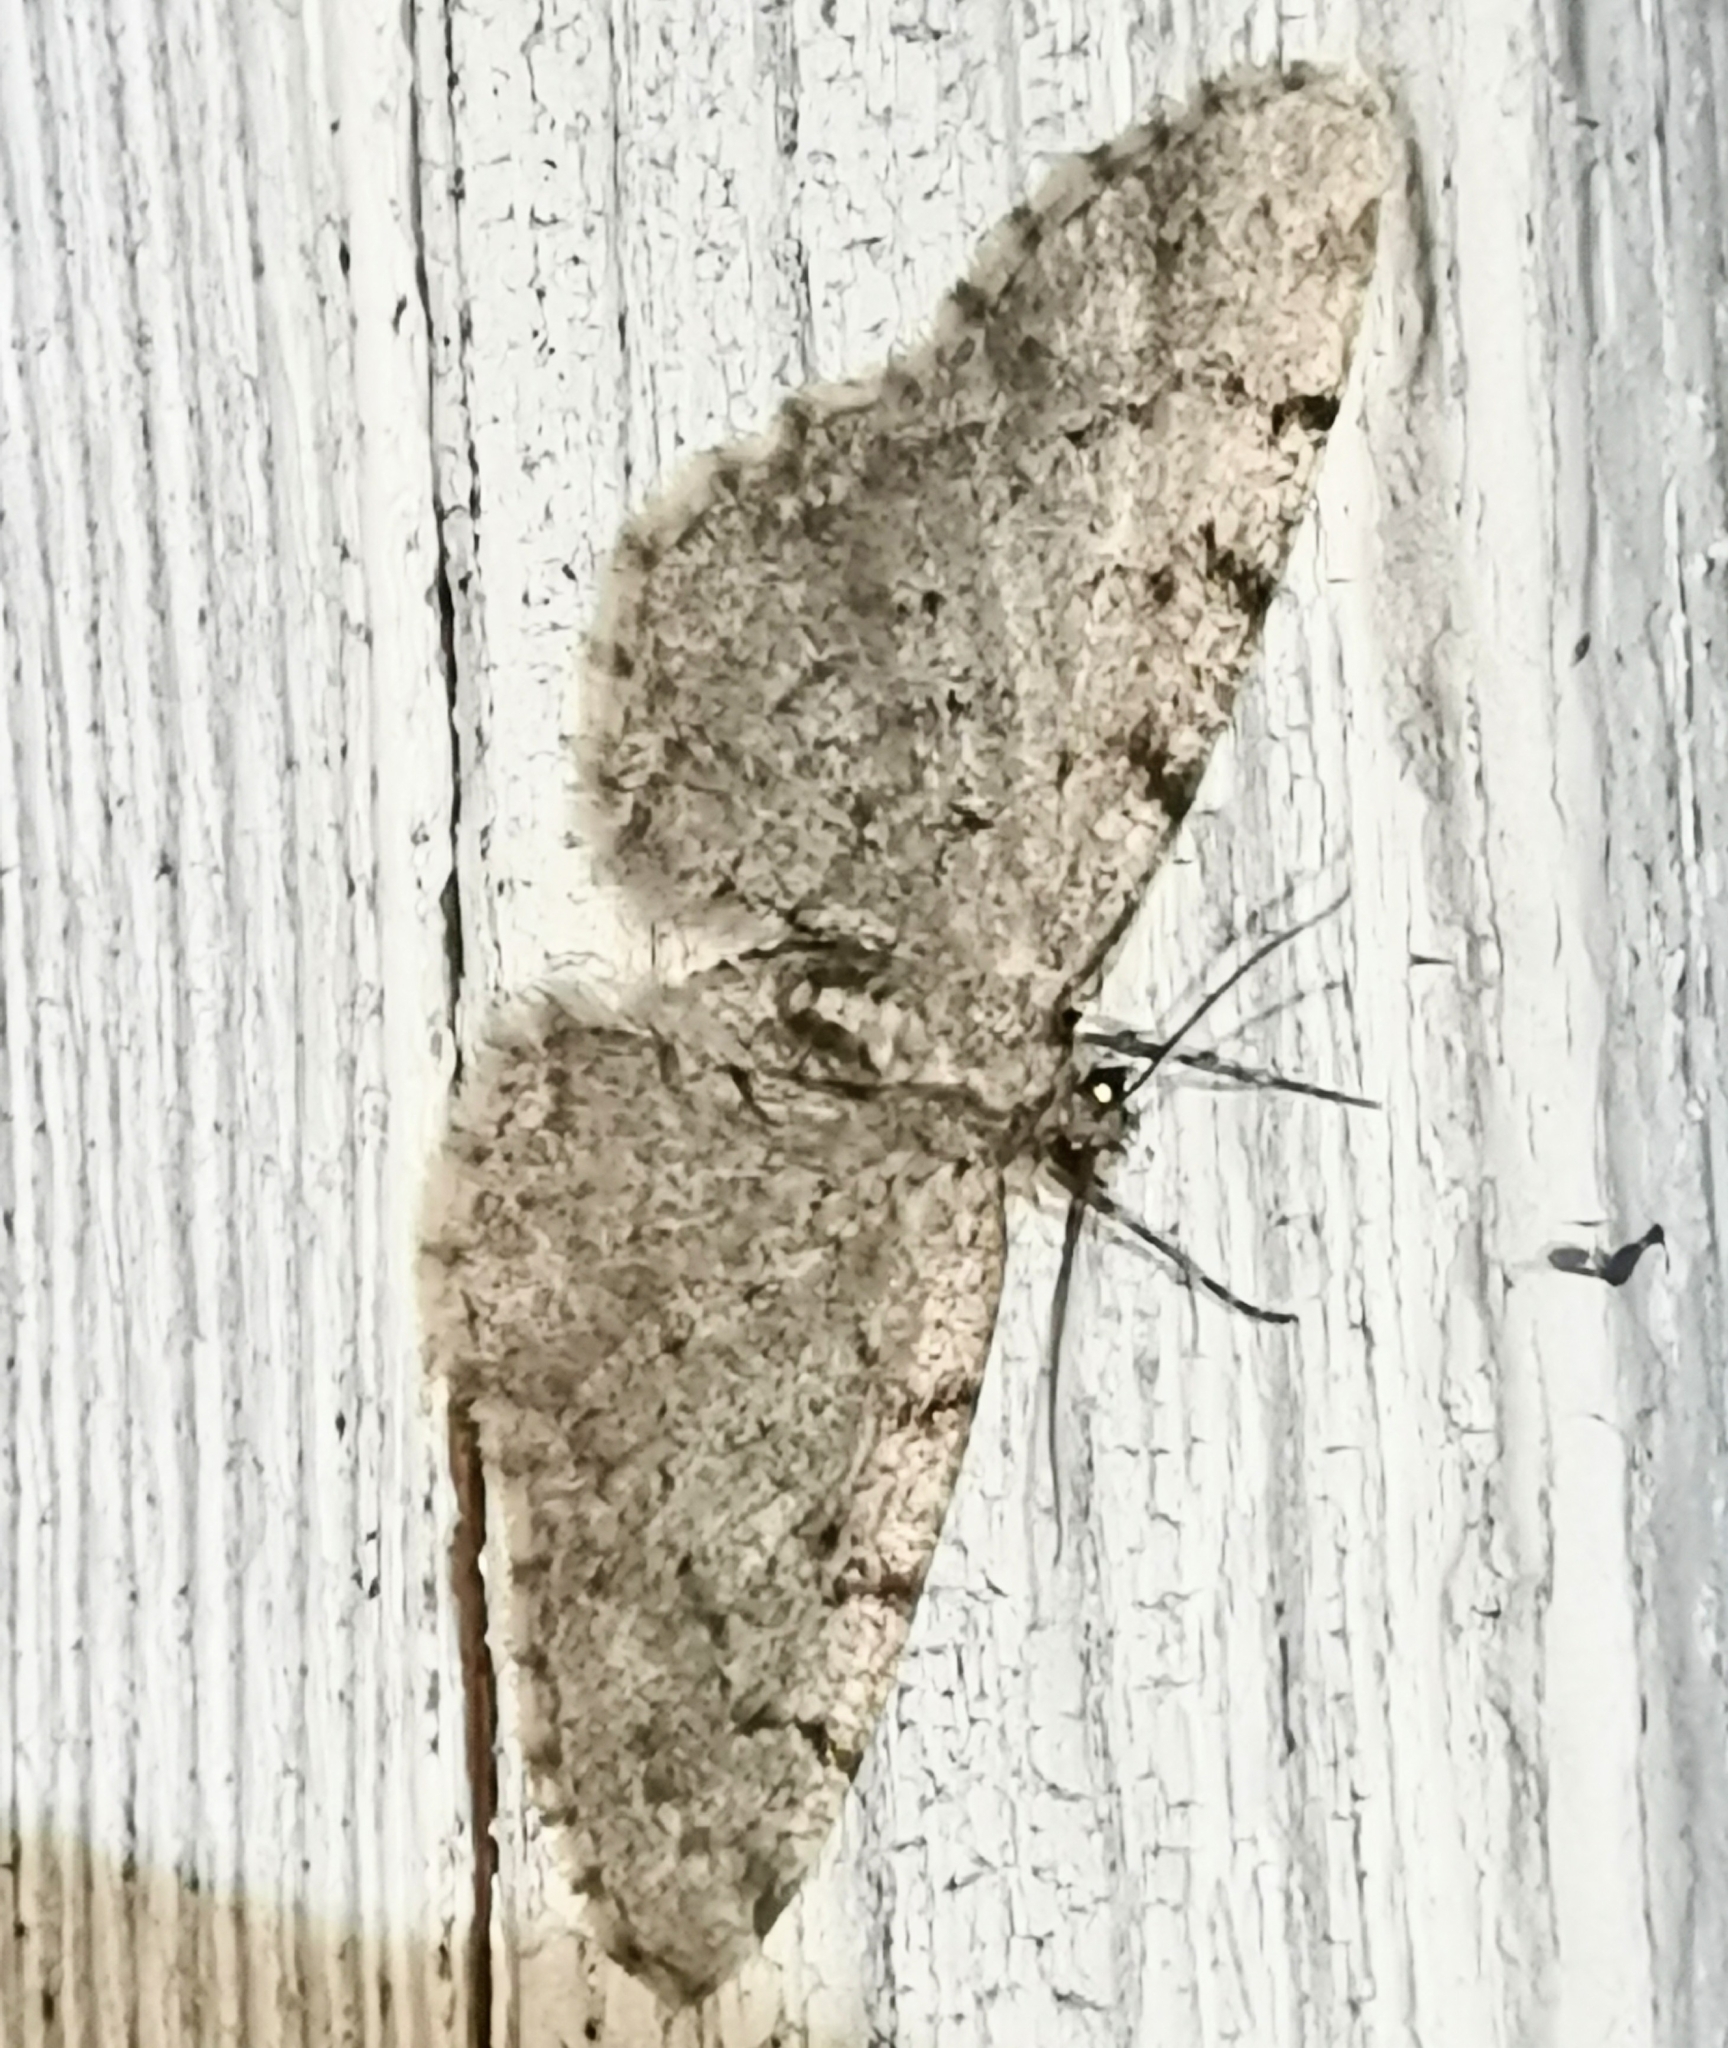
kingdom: Animalia
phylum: Arthropoda
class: Insecta
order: Lepidoptera
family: Geometridae
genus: Aethalura
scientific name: Aethalura punctulata
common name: Grey birch
